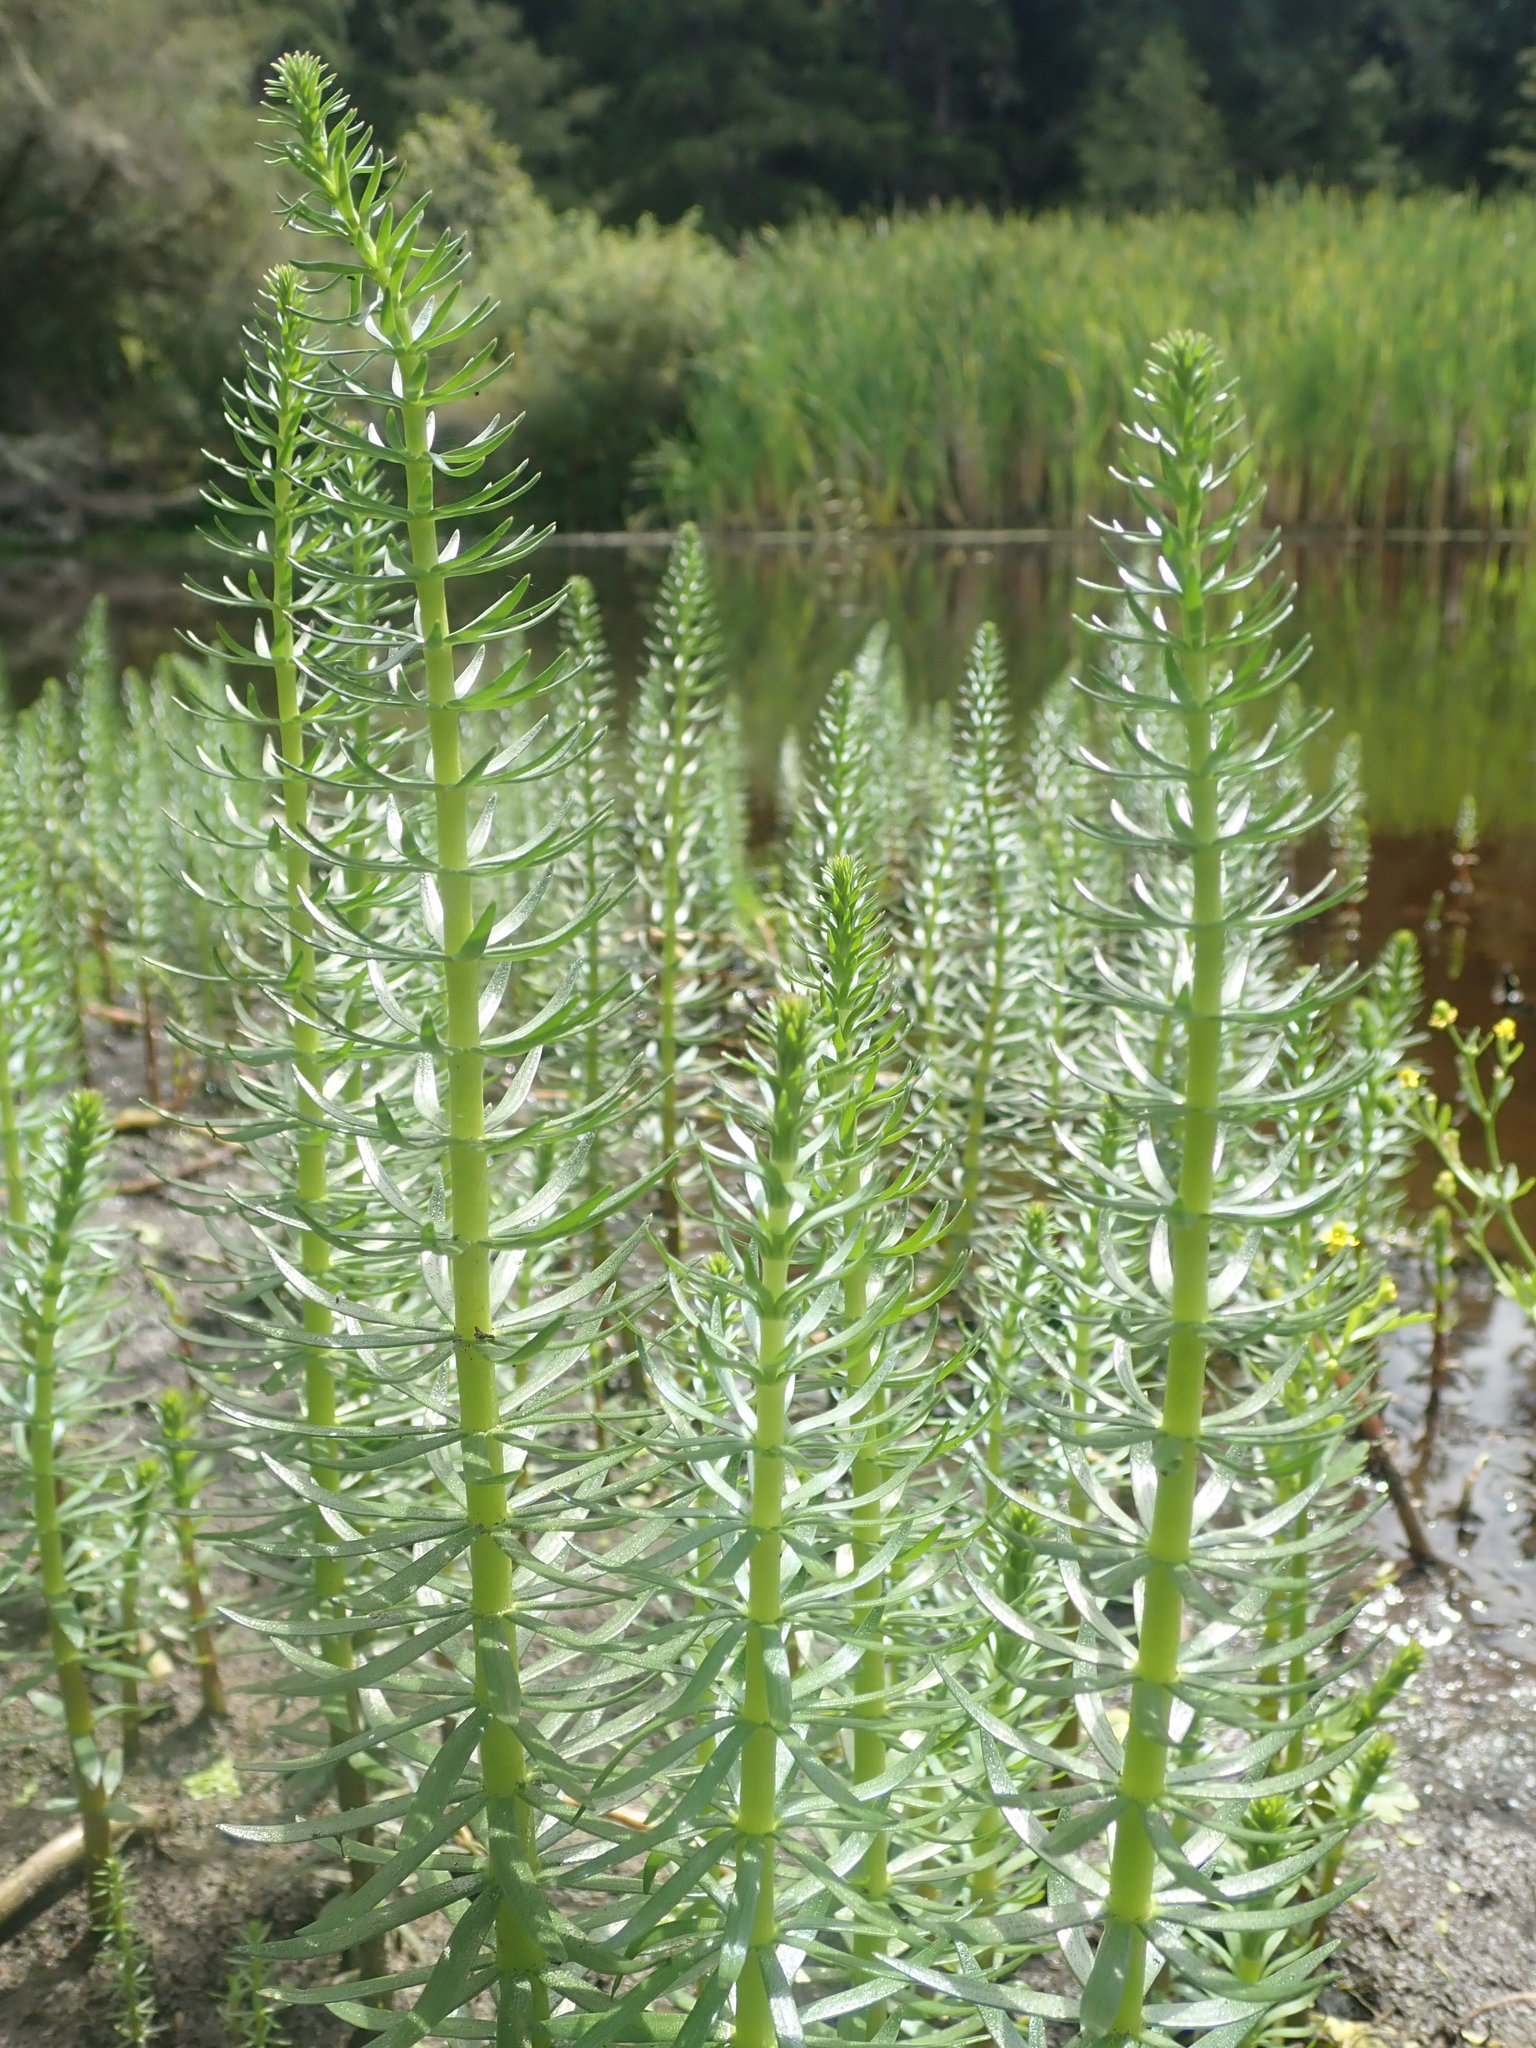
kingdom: Plantae
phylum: Tracheophyta
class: Magnoliopsida
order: Lamiales
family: Plantaginaceae
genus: Hippuris
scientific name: Hippuris vulgaris
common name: Mare's-tail
